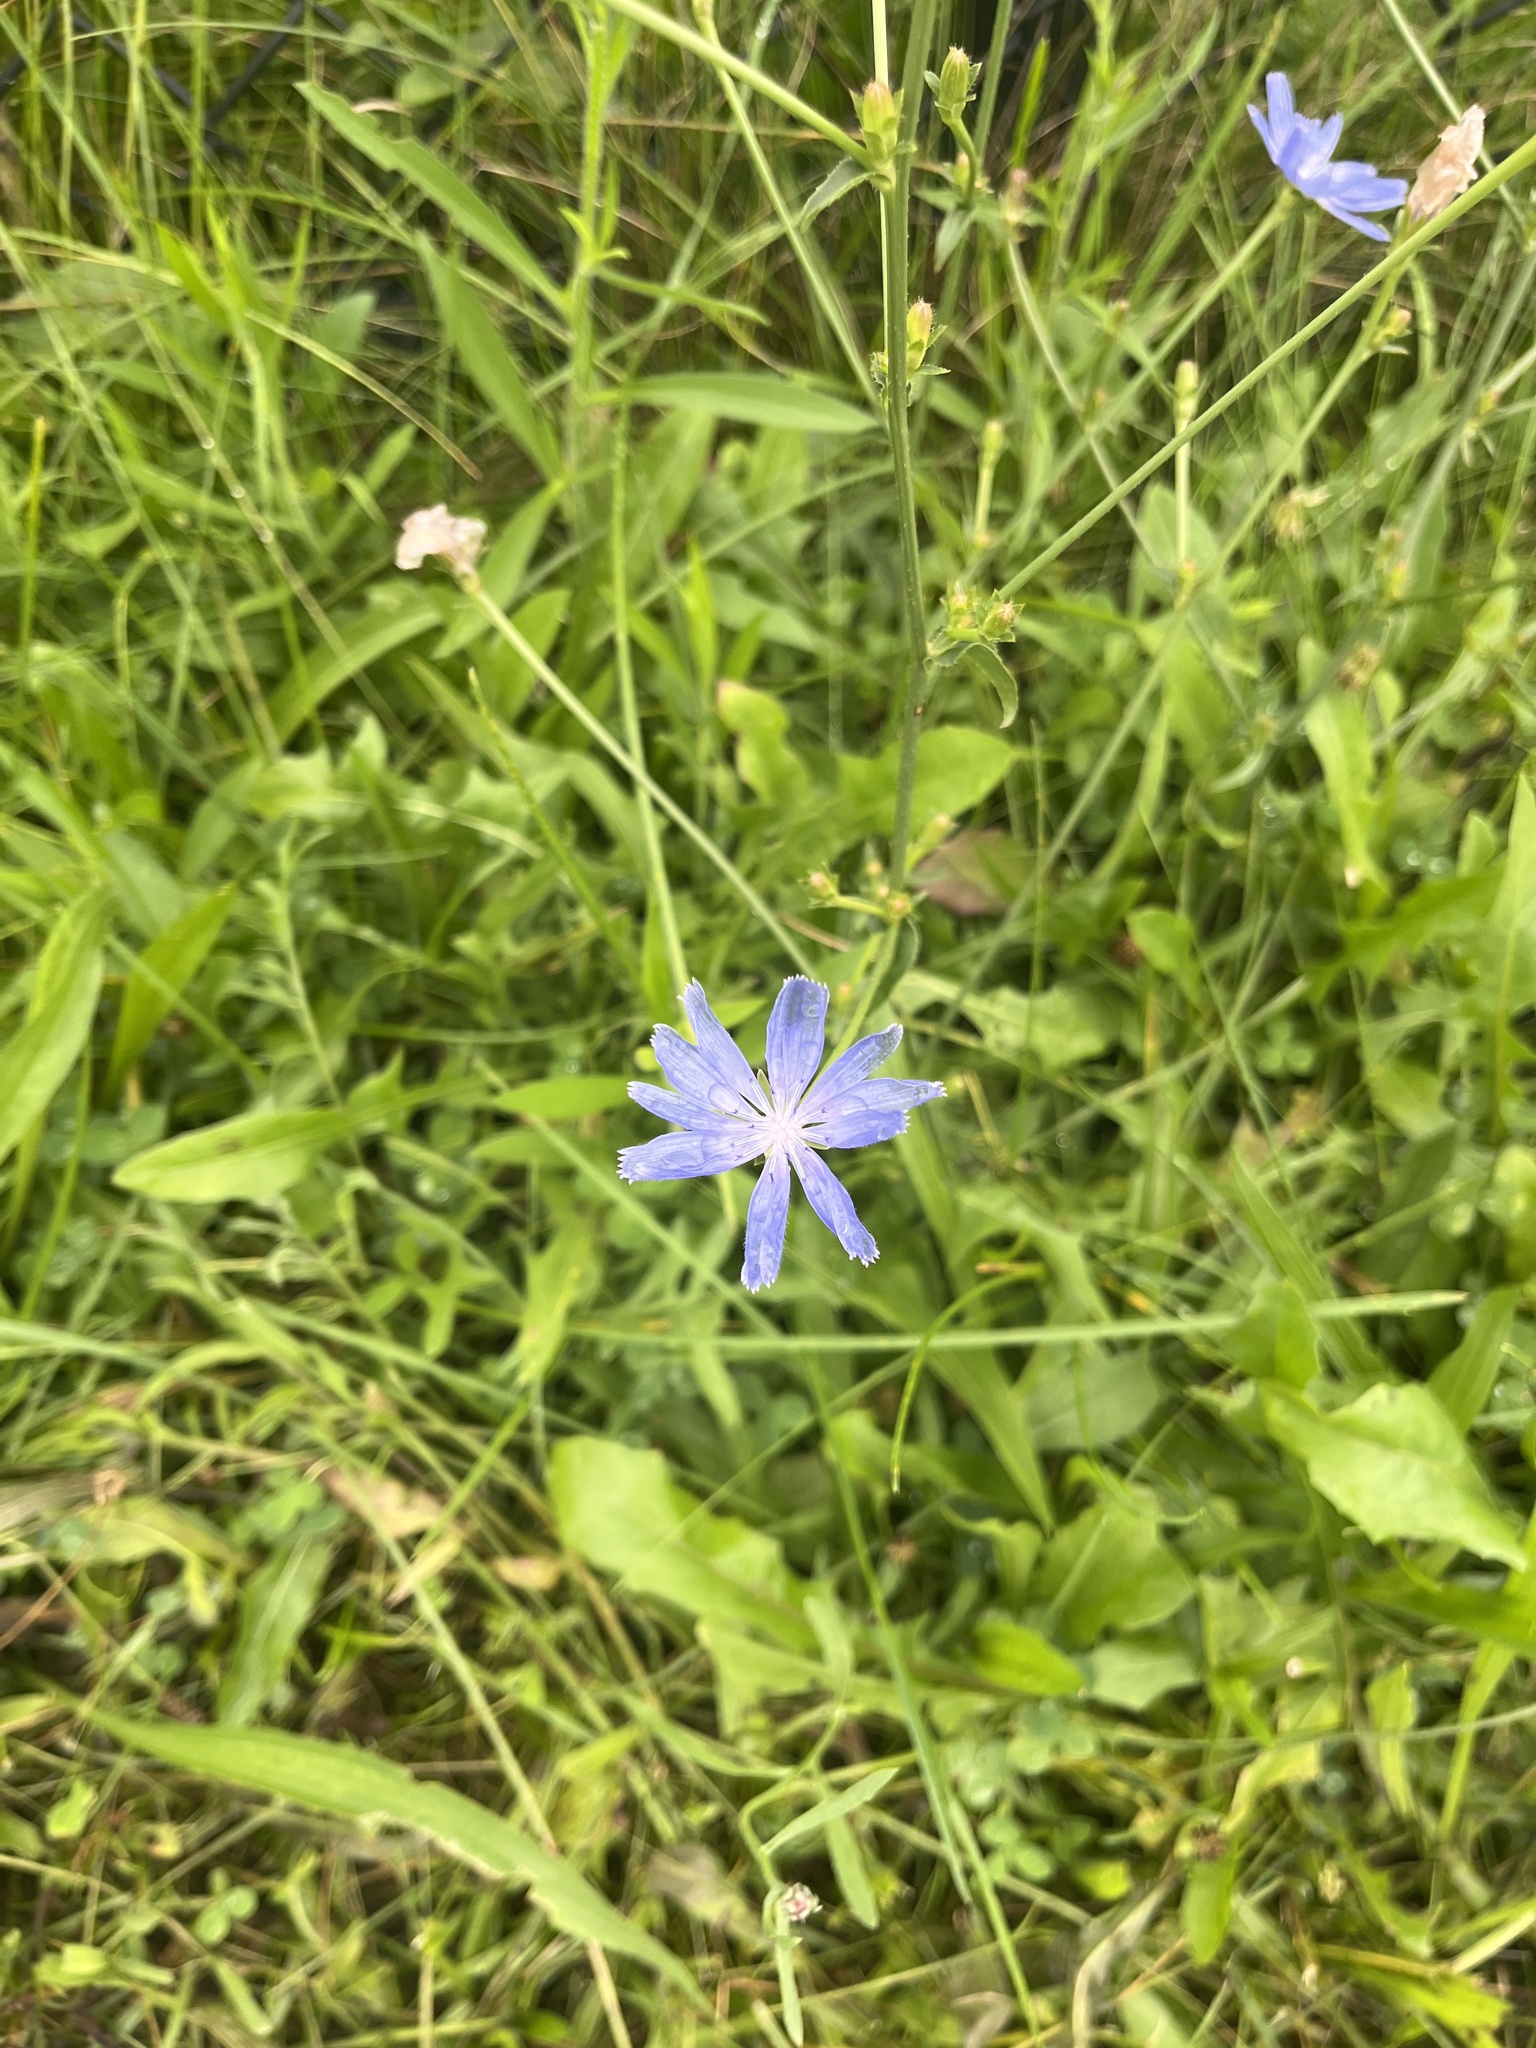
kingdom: Plantae
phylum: Tracheophyta
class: Magnoliopsida
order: Asterales
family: Asteraceae
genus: Cichorium
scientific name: Cichorium intybus
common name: Chicory
